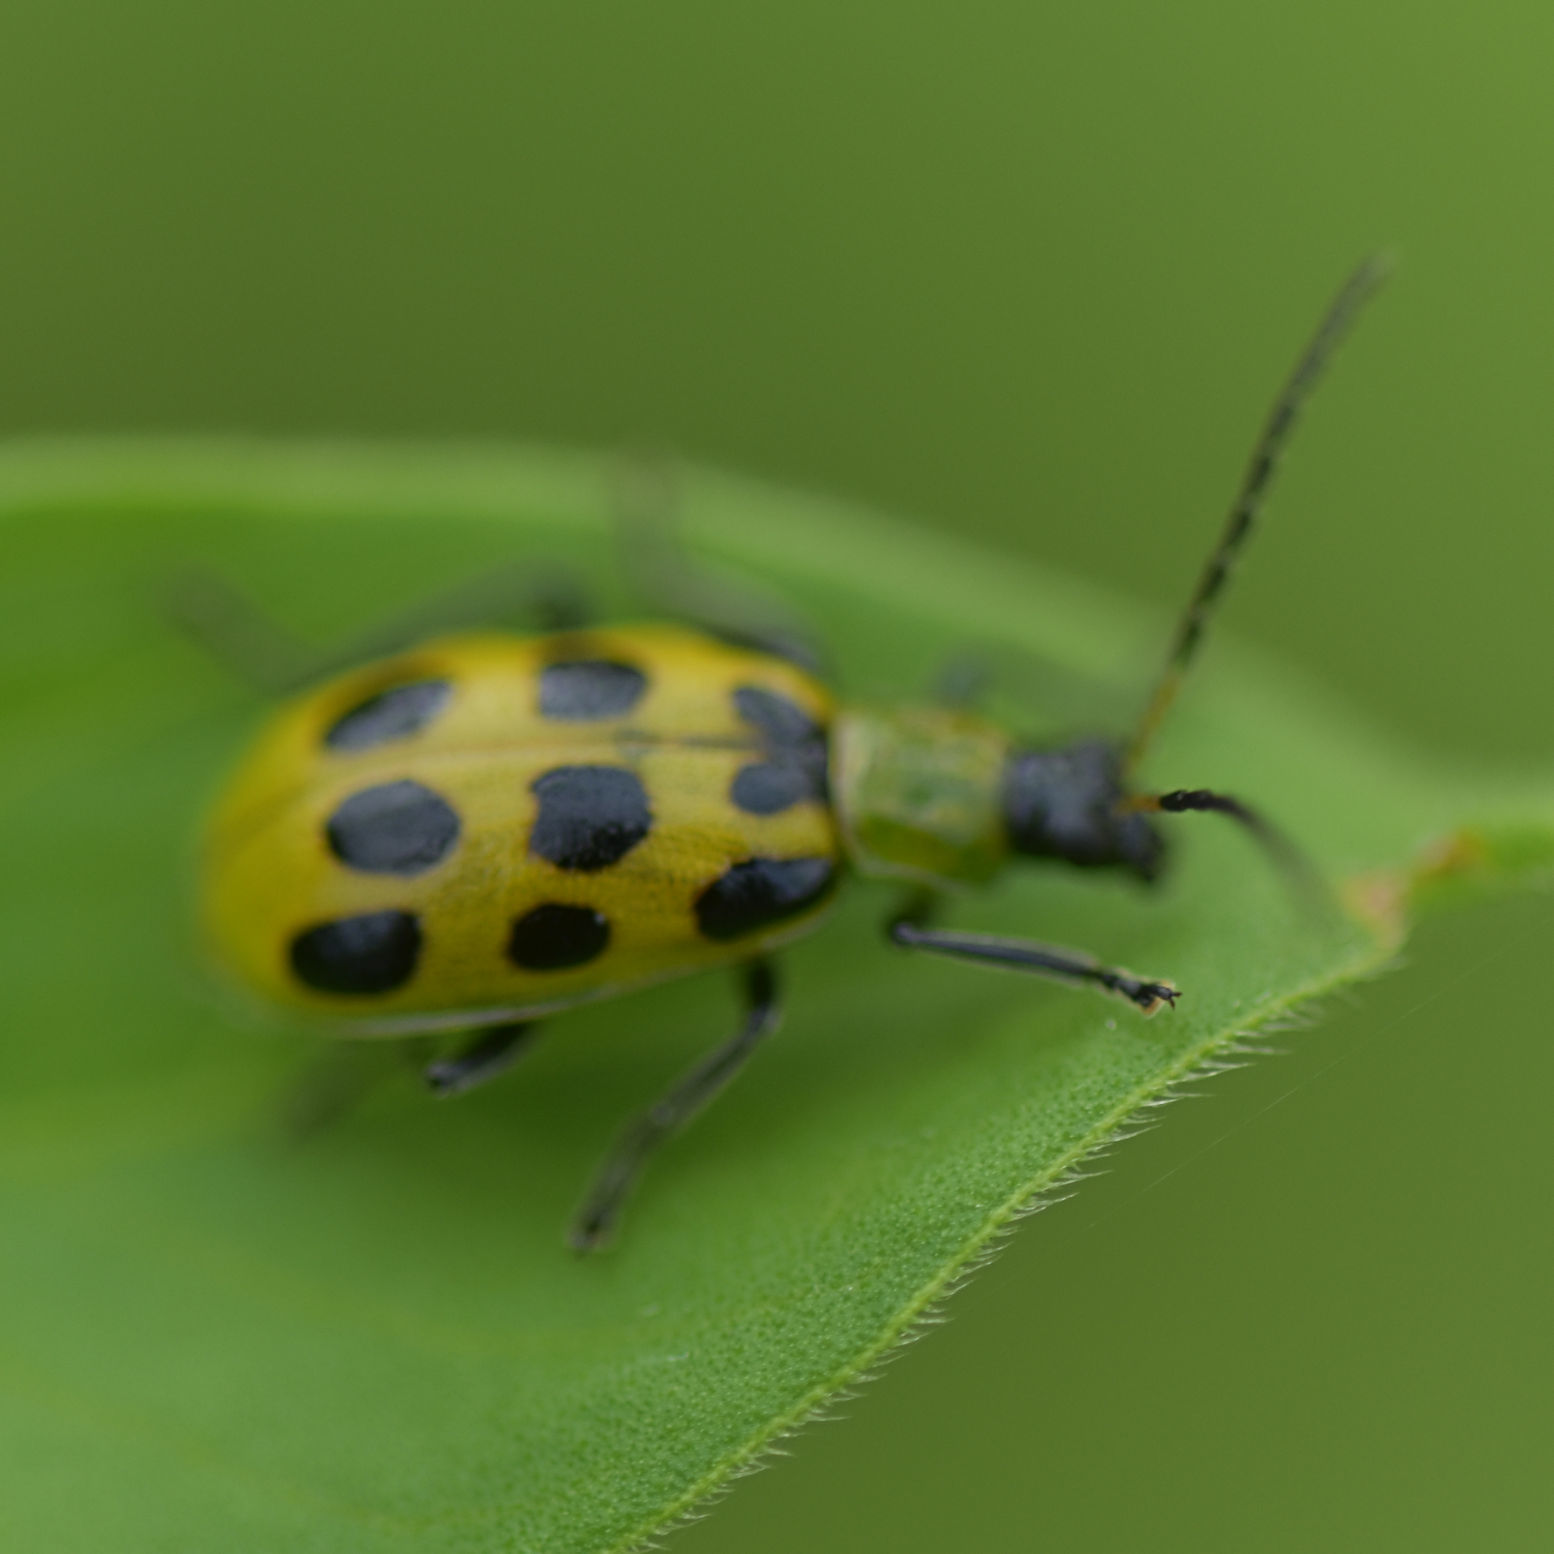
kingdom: Animalia
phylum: Arthropoda
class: Insecta
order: Coleoptera
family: Chrysomelidae
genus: Diabrotica
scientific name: Diabrotica undecimpunctata
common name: Spotted cucumber beetle
